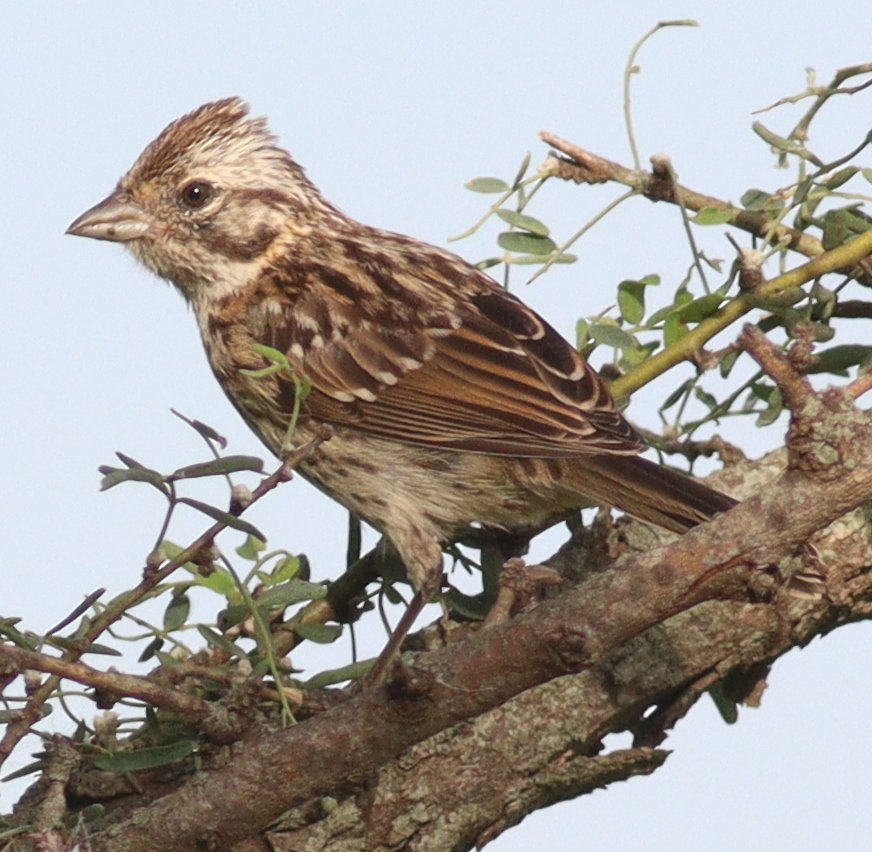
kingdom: Animalia
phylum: Chordata
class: Aves
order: Passeriformes
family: Passerellidae
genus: Zonotrichia
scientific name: Zonotrichia capensis
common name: Rufous-collared sparrow
